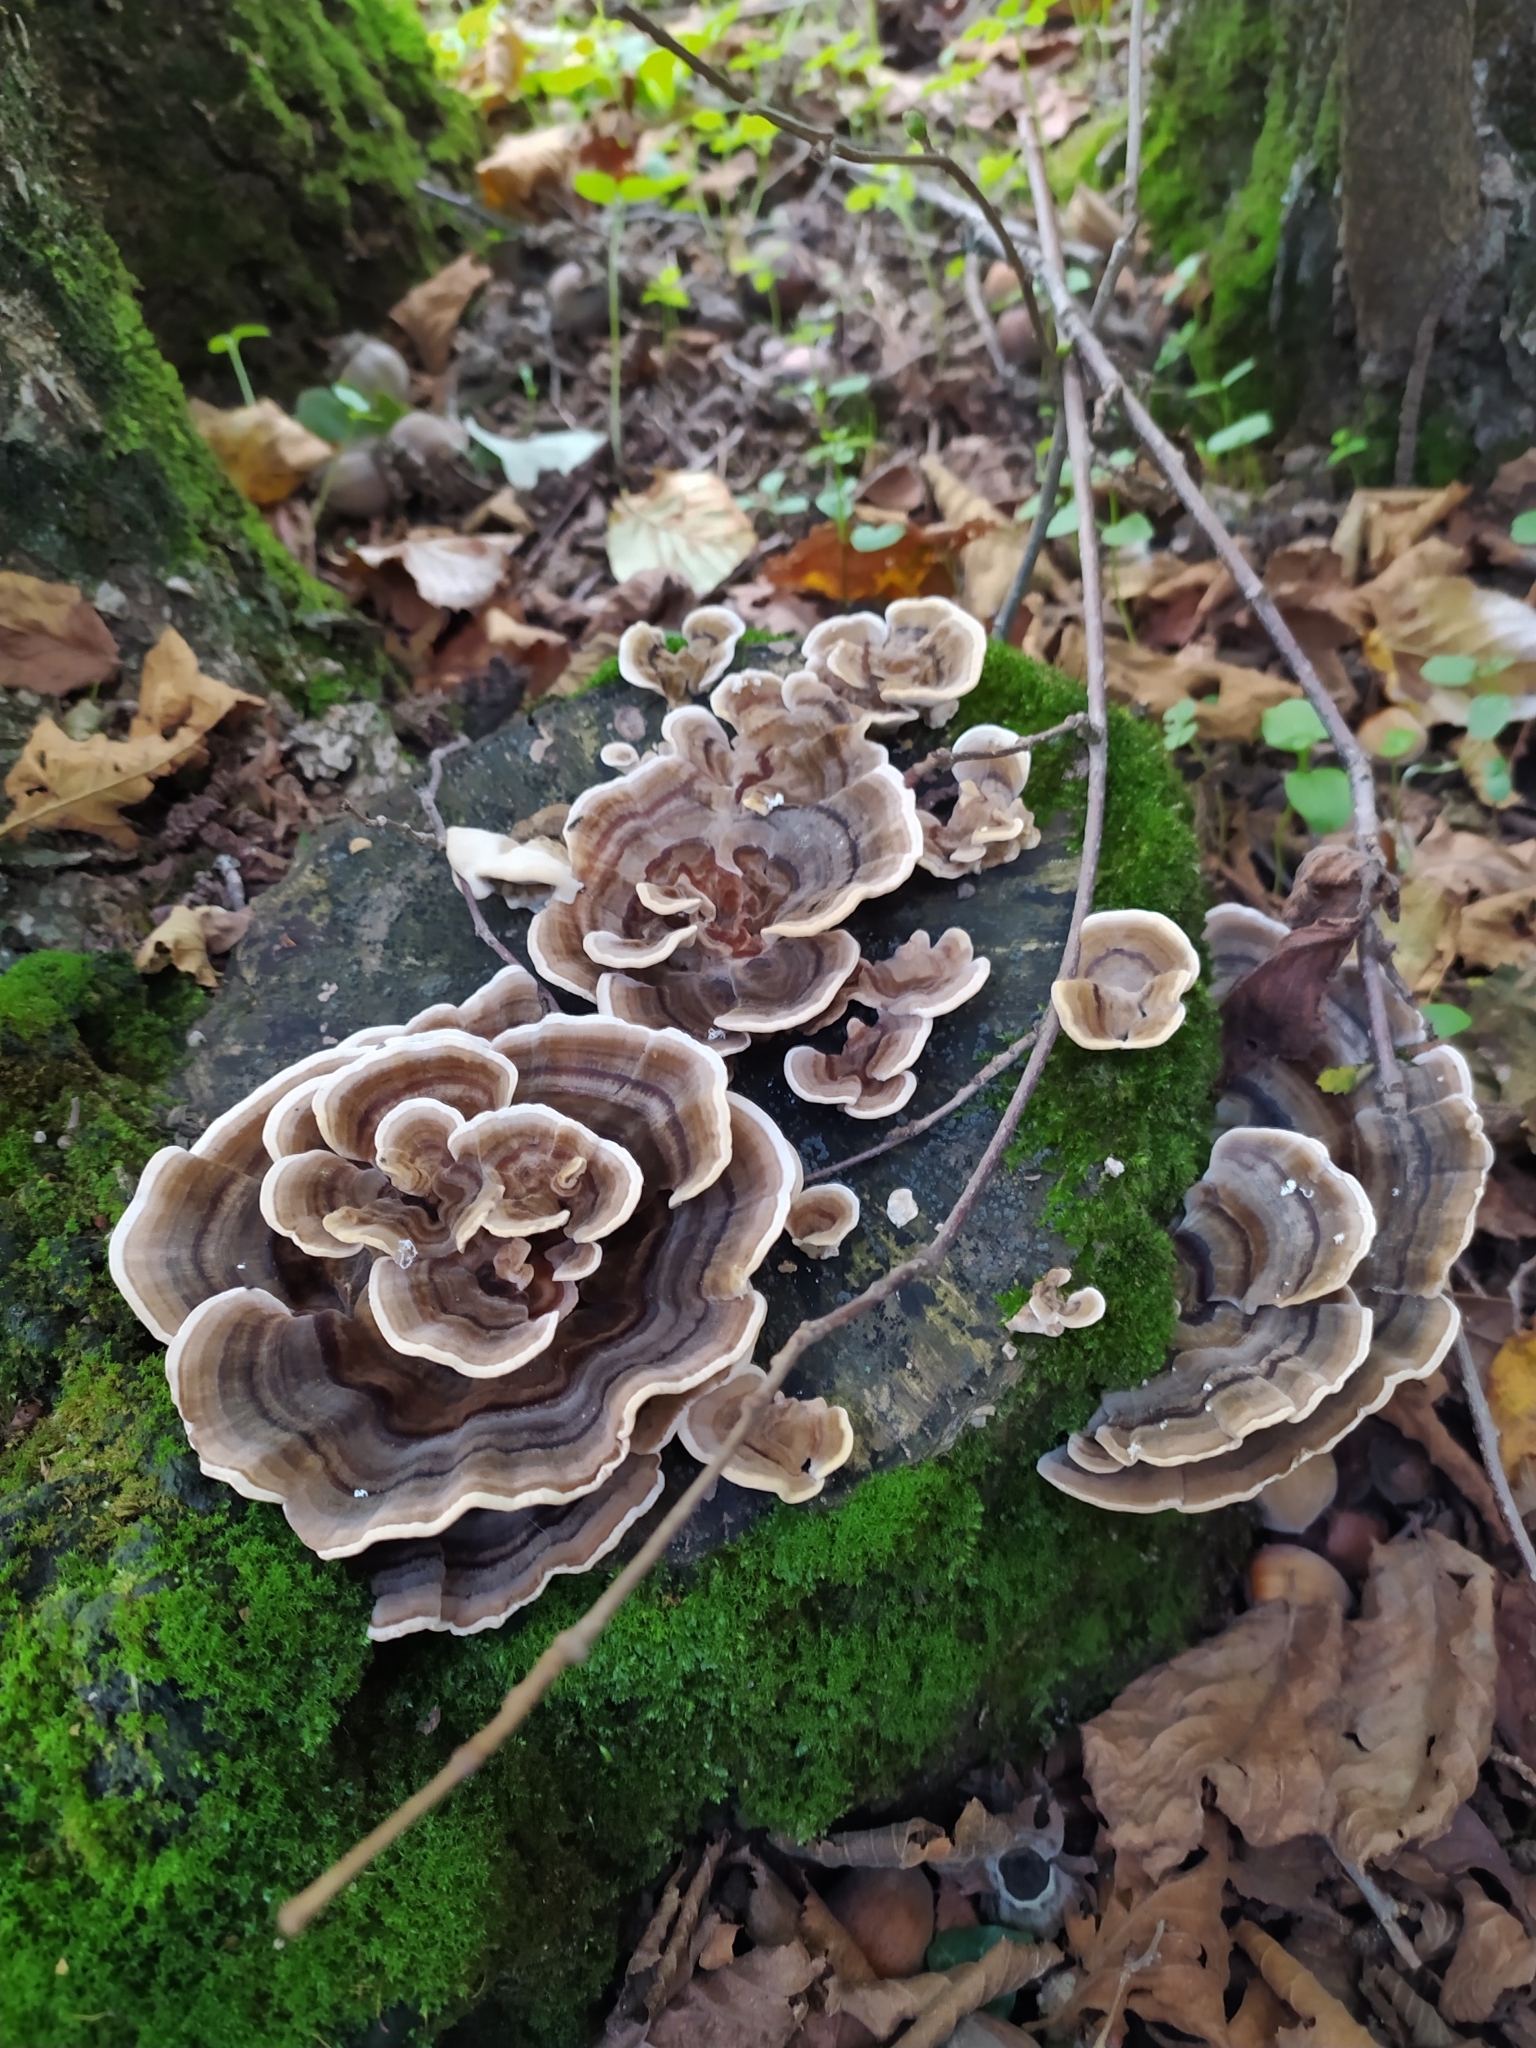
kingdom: Fungi
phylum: Basidiomycota
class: Agaricomycetes
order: Polyporales
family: Polyporaceae
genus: Trametes
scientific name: Trametes versicolor
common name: Turkeytail
